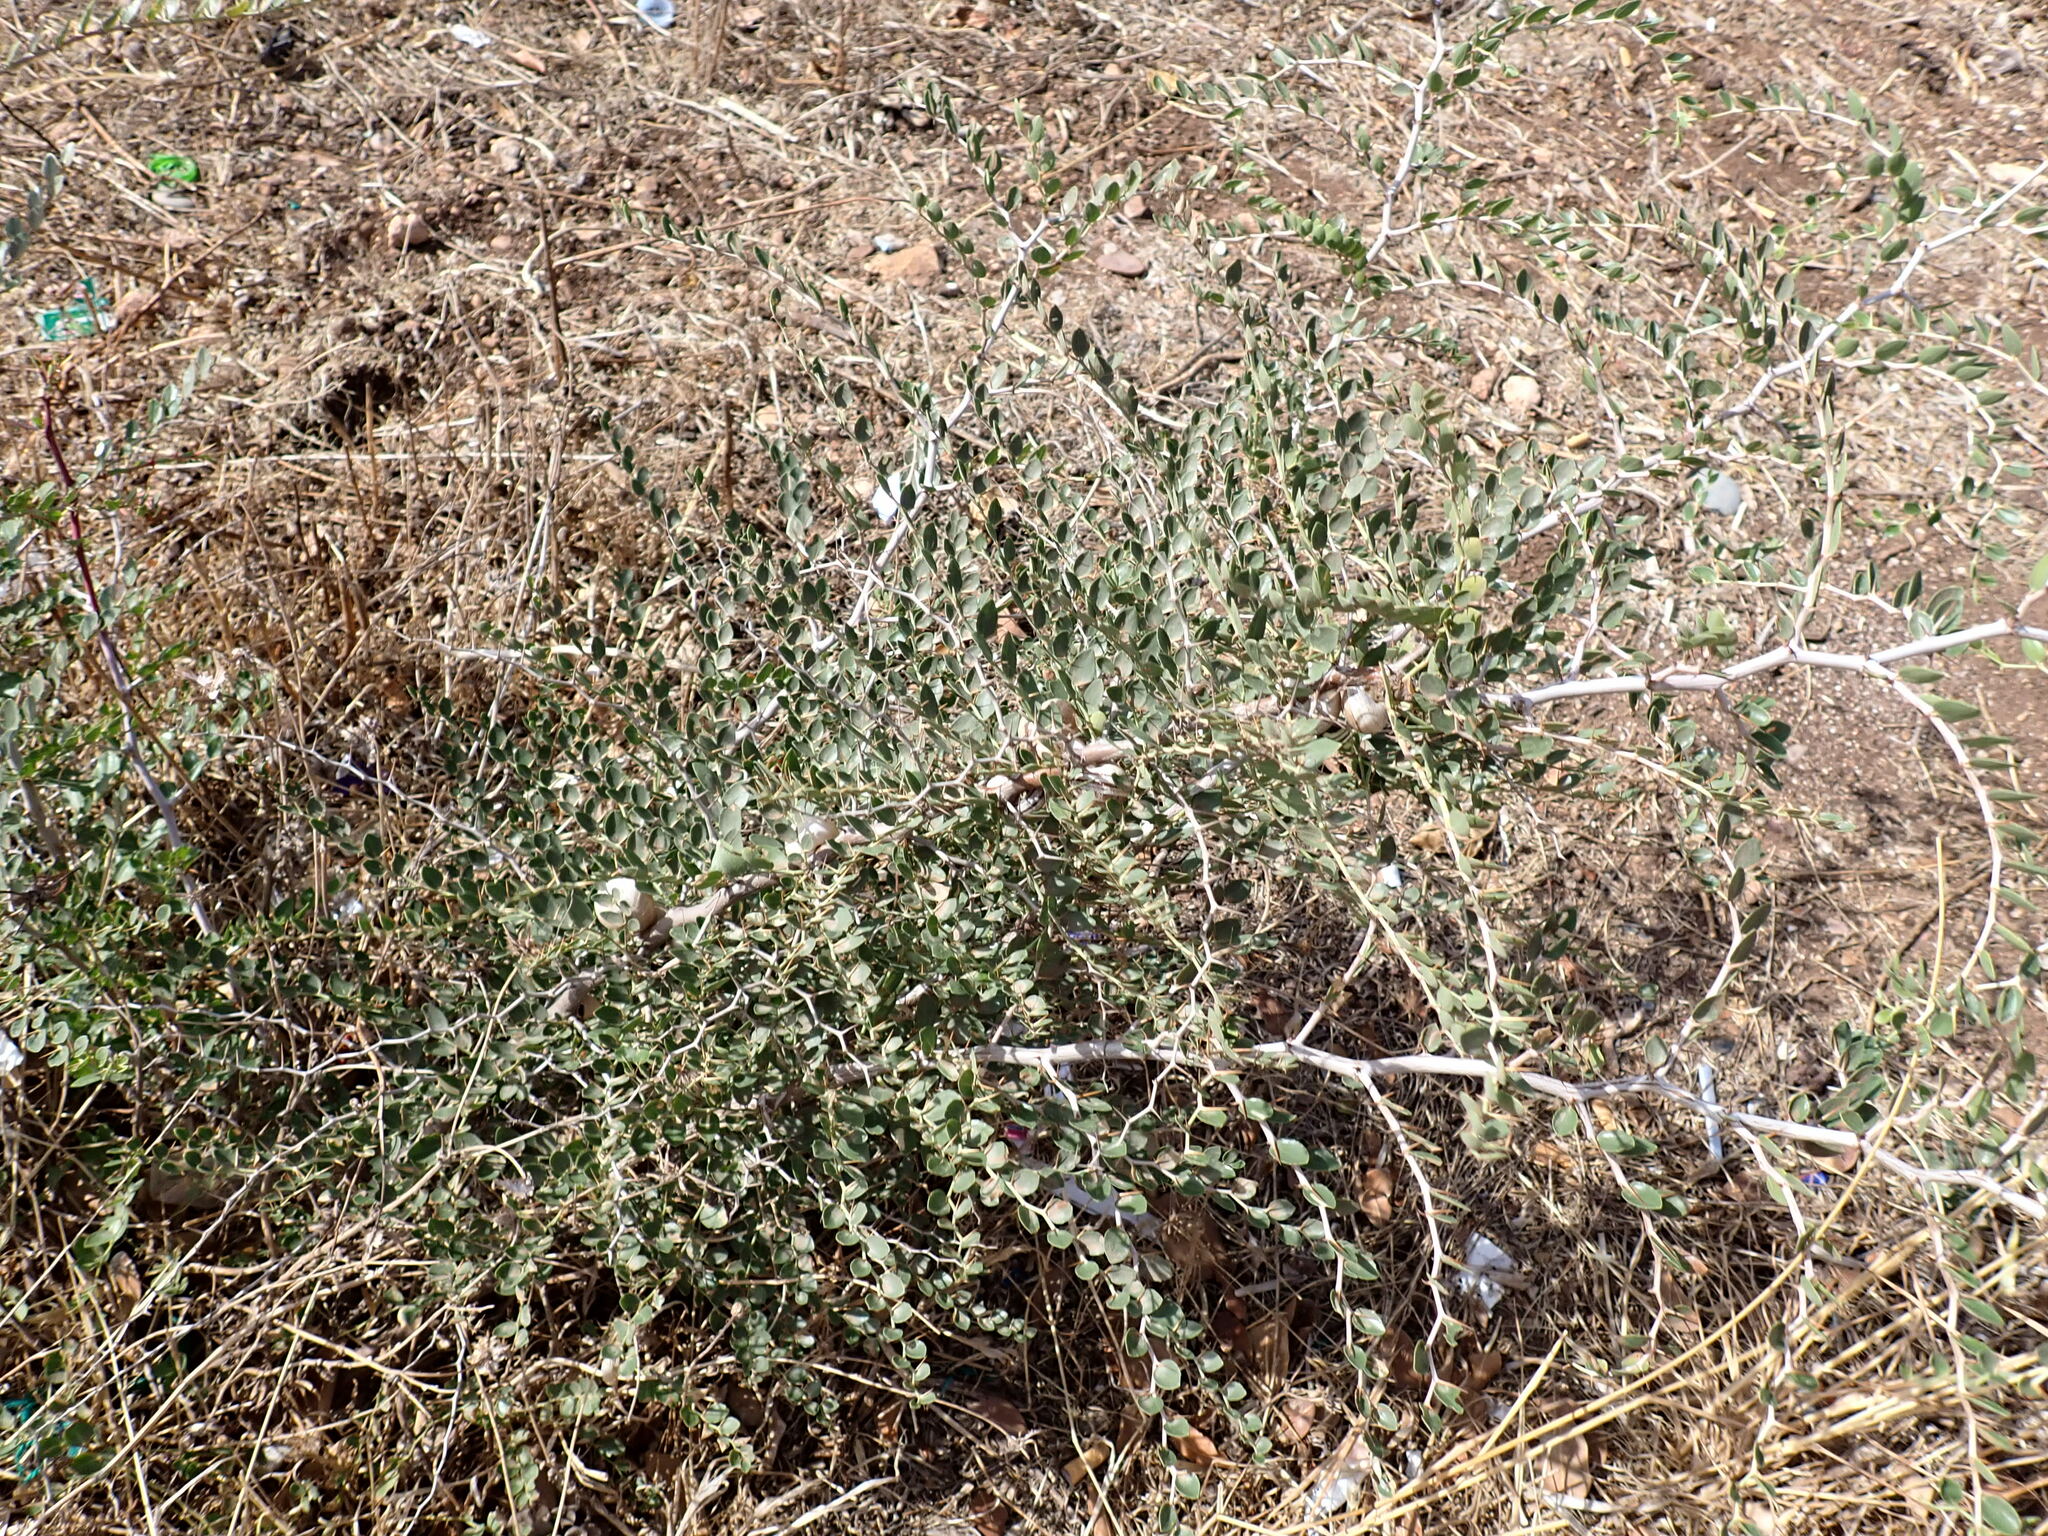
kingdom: Plantae
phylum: Tracheophyta
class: Magnoliopsida
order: Rosales
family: Rhamnaceae
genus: Ziziphus
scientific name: Ziziphus lotus
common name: Lotus
